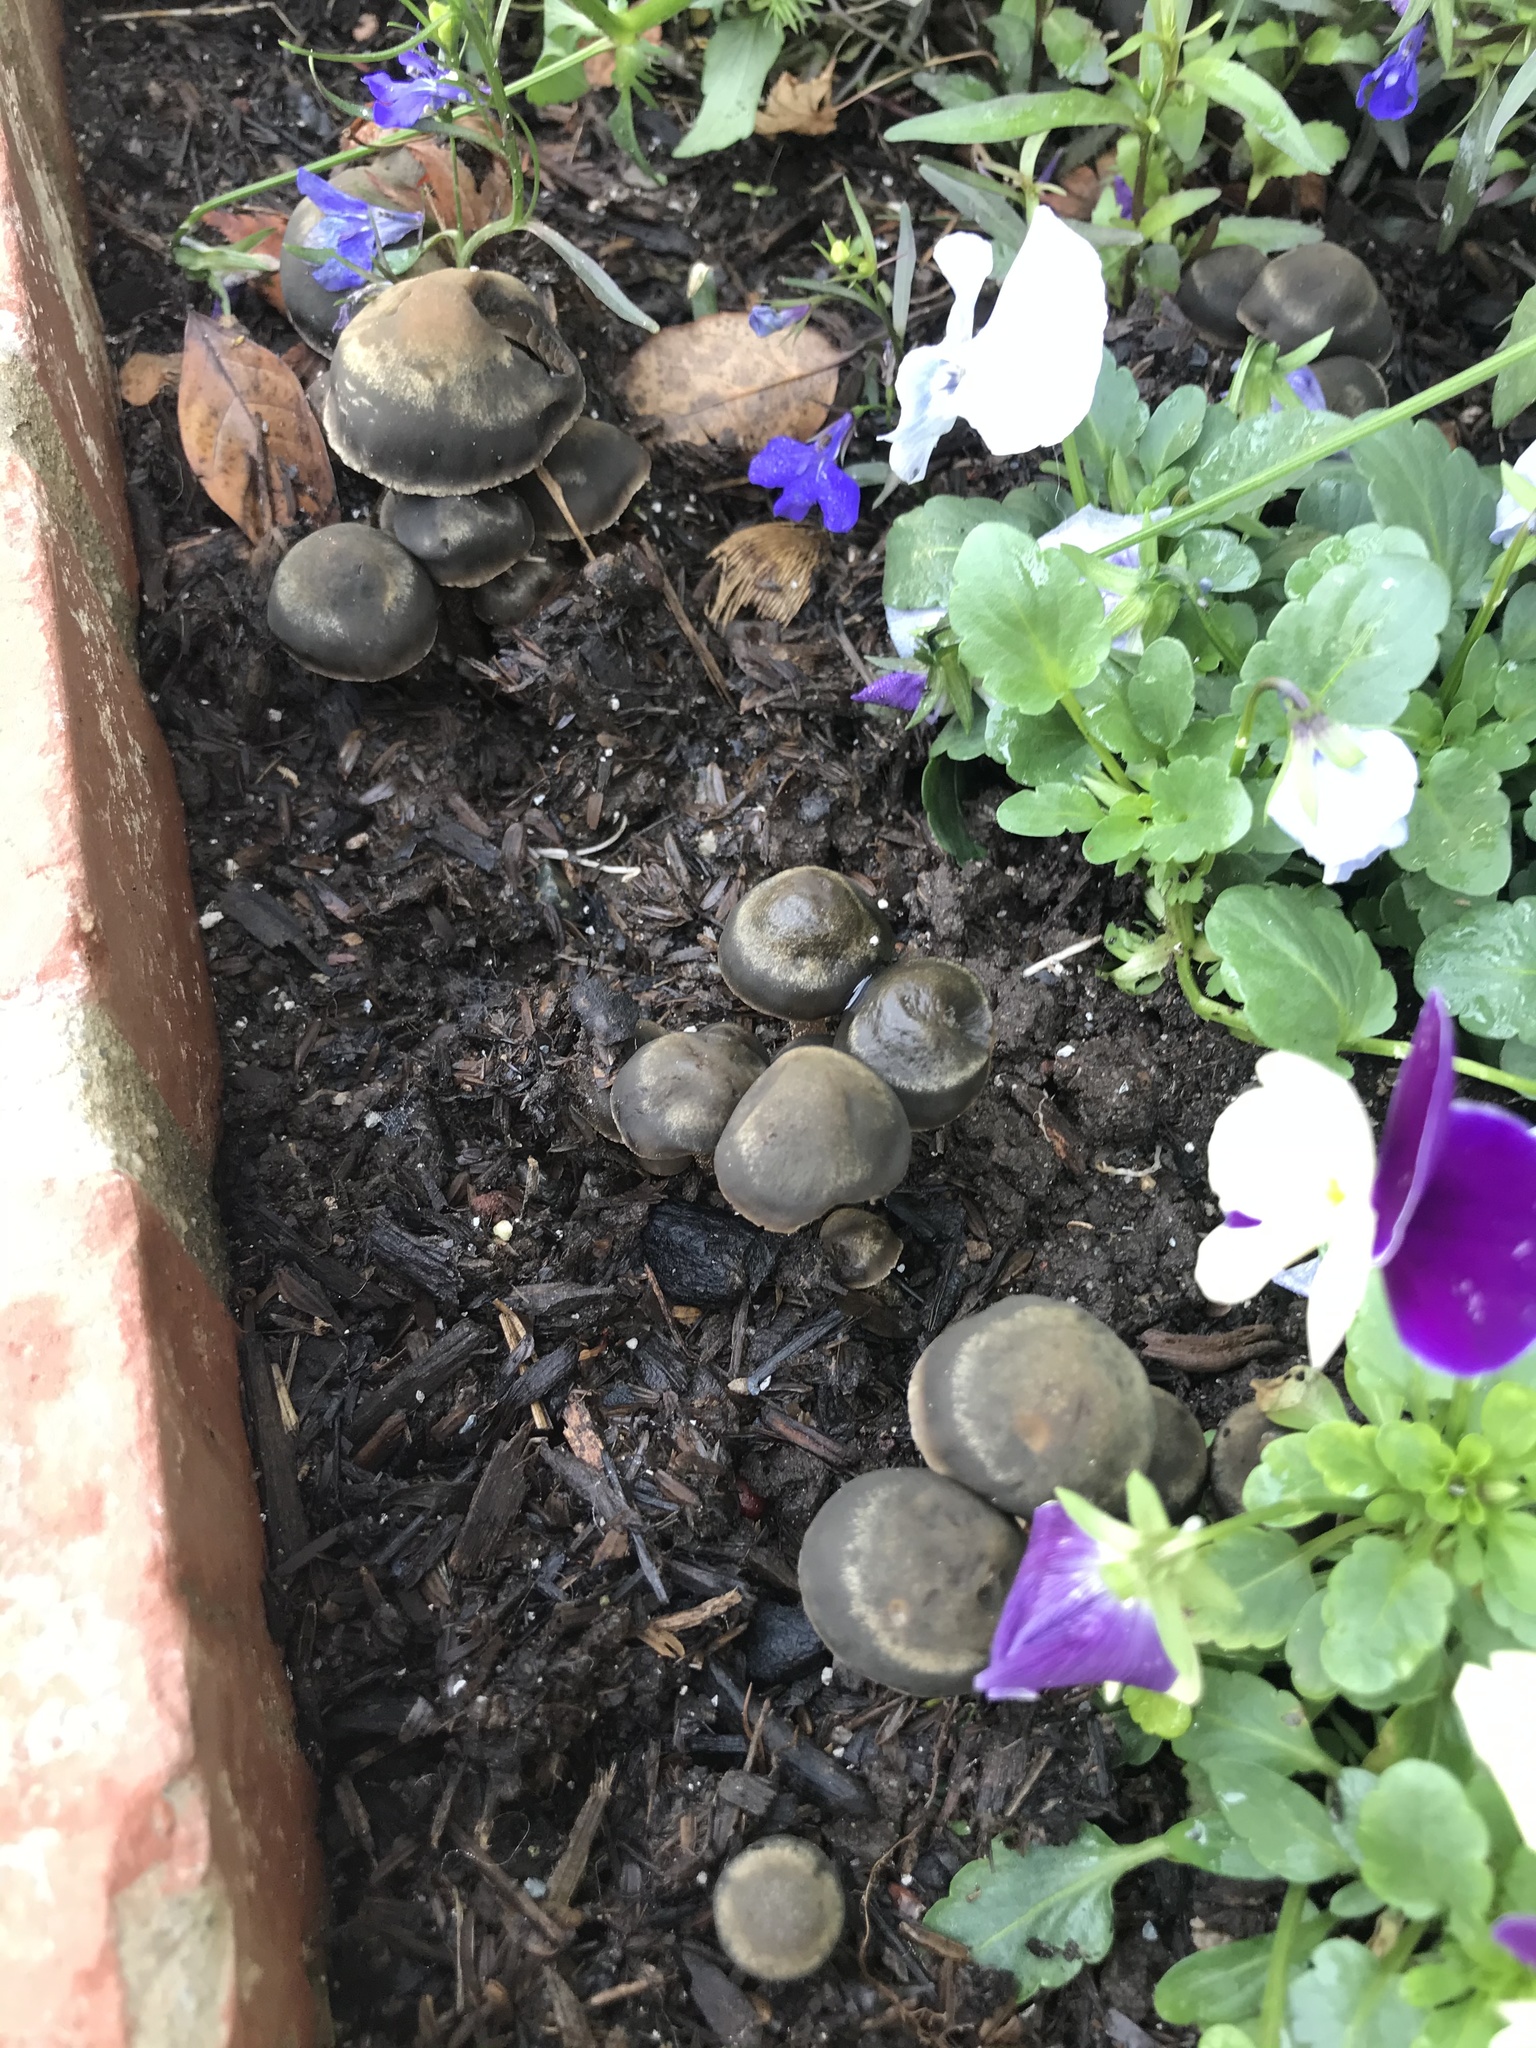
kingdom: Fungi
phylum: Basidiomycota
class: Agaricomycetes
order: Agaricales
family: Bolbitiaceae
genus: Panaeolus
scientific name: Panaeolus cinctulus
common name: Banded mottlegill
